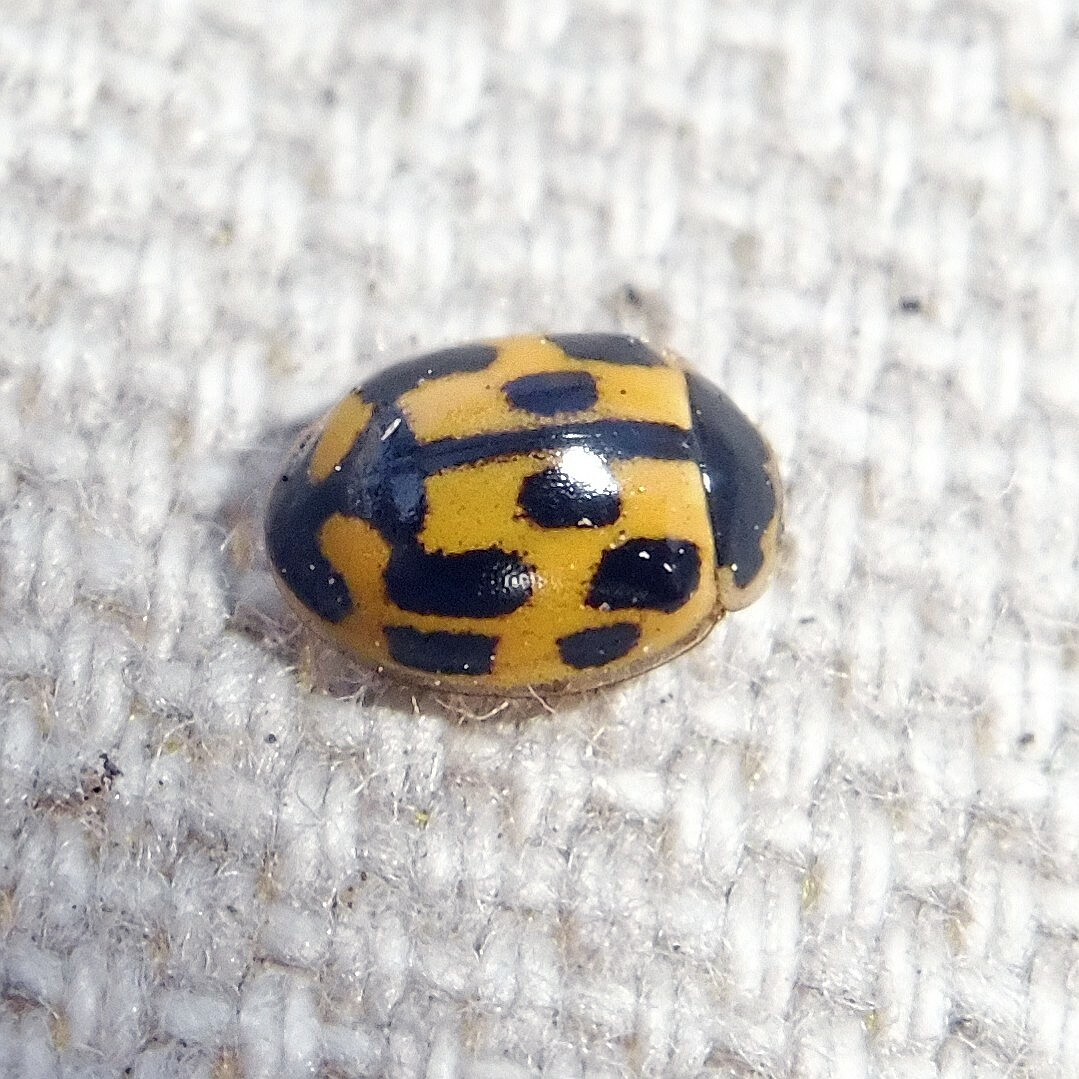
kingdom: Animalia
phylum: Arthropoda
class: Insecta
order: Coleoptera
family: Coccinellidae
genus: Propylaea
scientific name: Propylaea quatuordecimpunctata
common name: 14-spotted ladybird beetle
